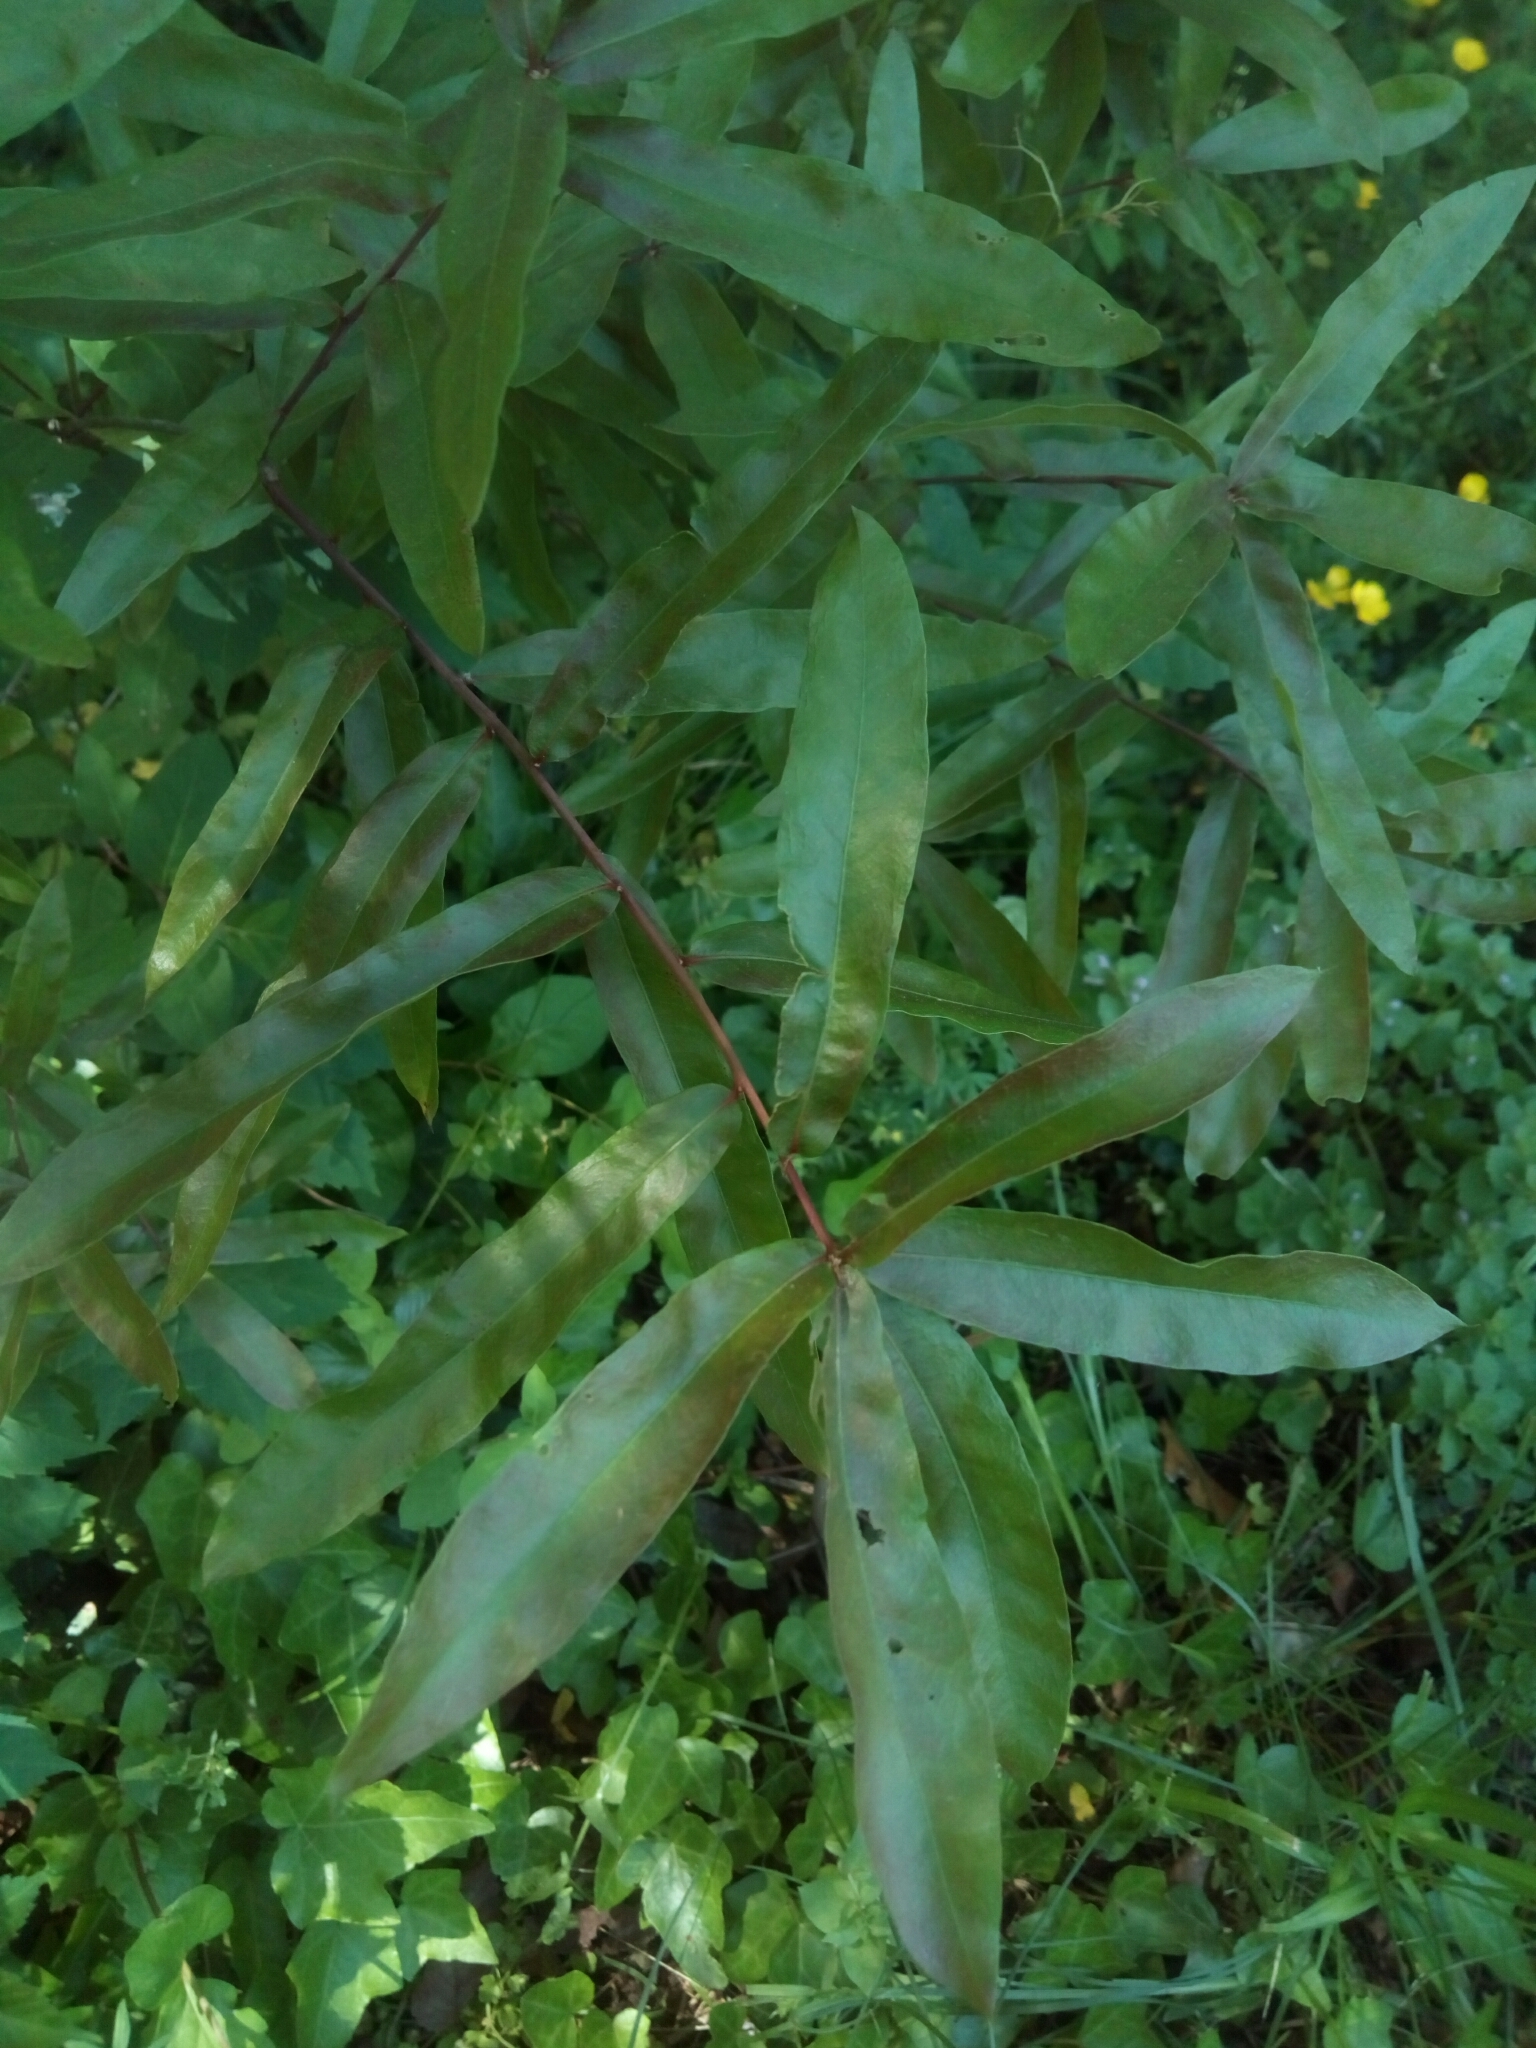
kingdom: Plantae
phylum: Tracheophyta
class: Magnoliopsida
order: Fagales
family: Fagaceae
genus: Quercus
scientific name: Quercus phellos
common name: Willow oak
